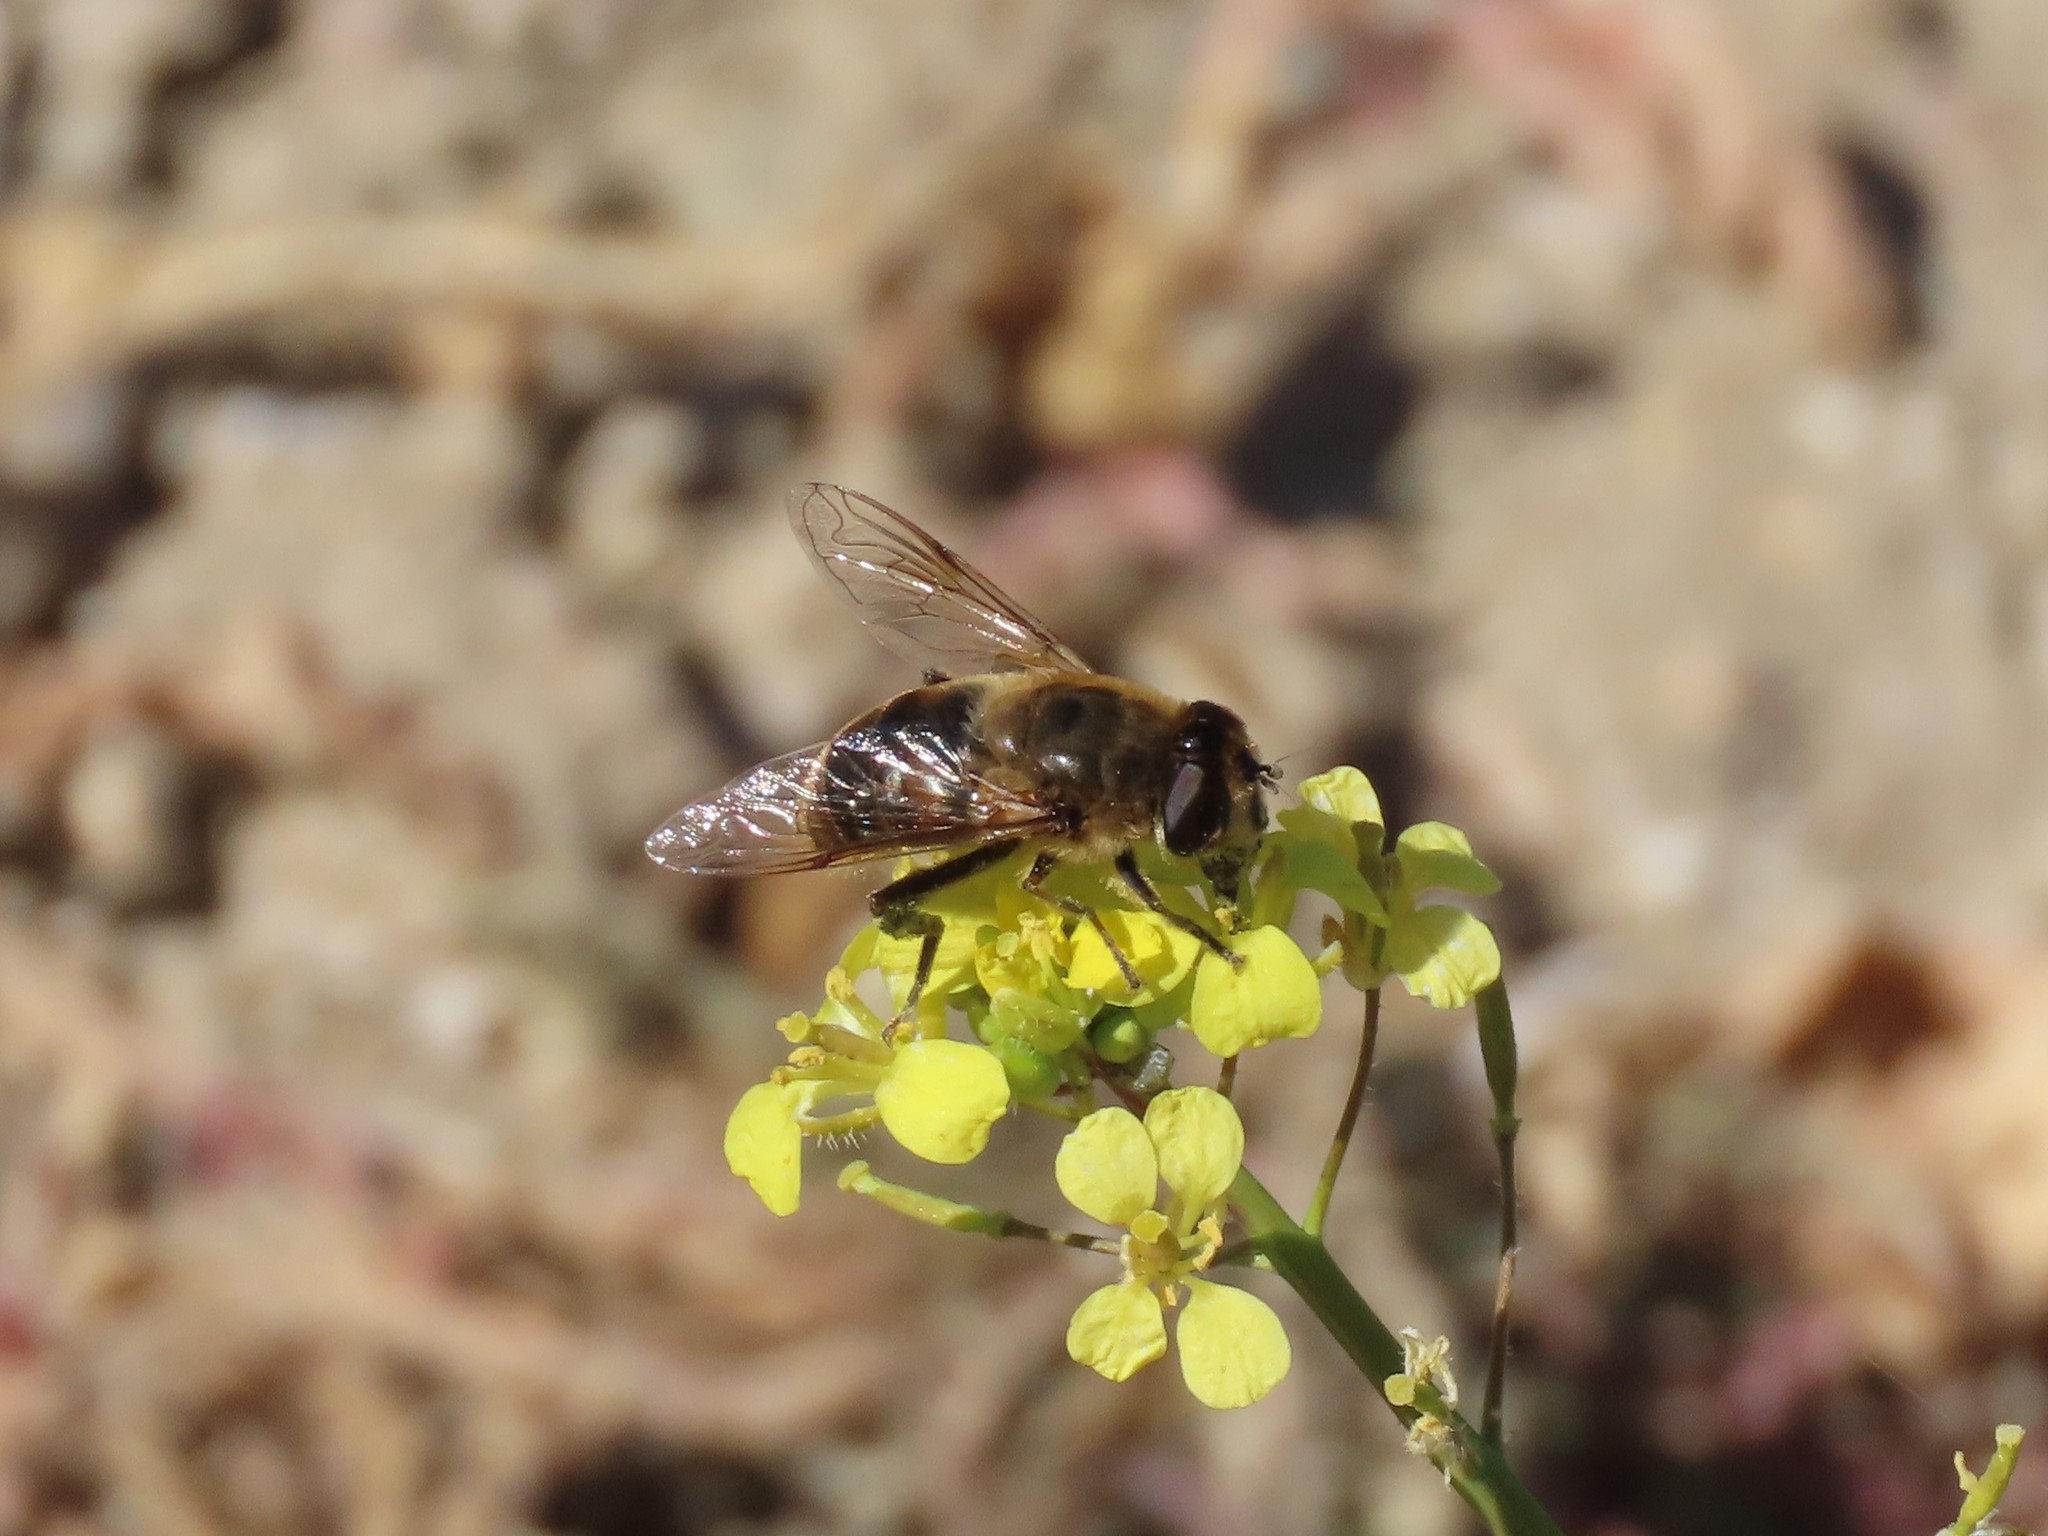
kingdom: Animalia
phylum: Arthropoda
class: Insecta
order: Diptera
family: Syrphidae
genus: Eristalis
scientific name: Eristalis tenax
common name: Drone fly
